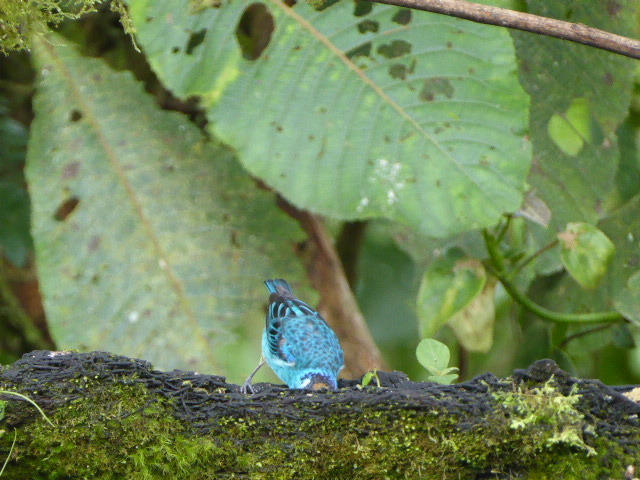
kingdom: Animalia
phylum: Chordata
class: Aves
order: Passeriformes
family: Thraupidae
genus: Chalcothraupis
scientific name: Chalcothraupis ruficervix
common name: Golden-naped tanager
